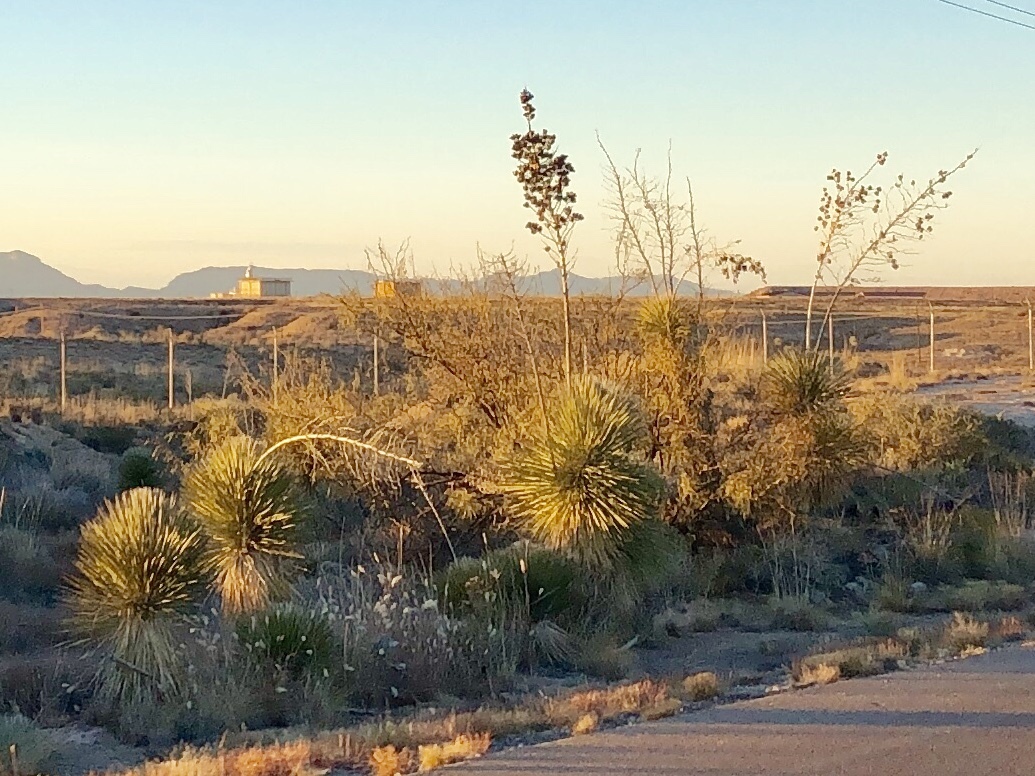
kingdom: Plantae
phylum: Tracheophyta
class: Liliopsida
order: Asparagales
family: Asparagaceae
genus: Yucca
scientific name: Yucca elata
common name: Palmella
